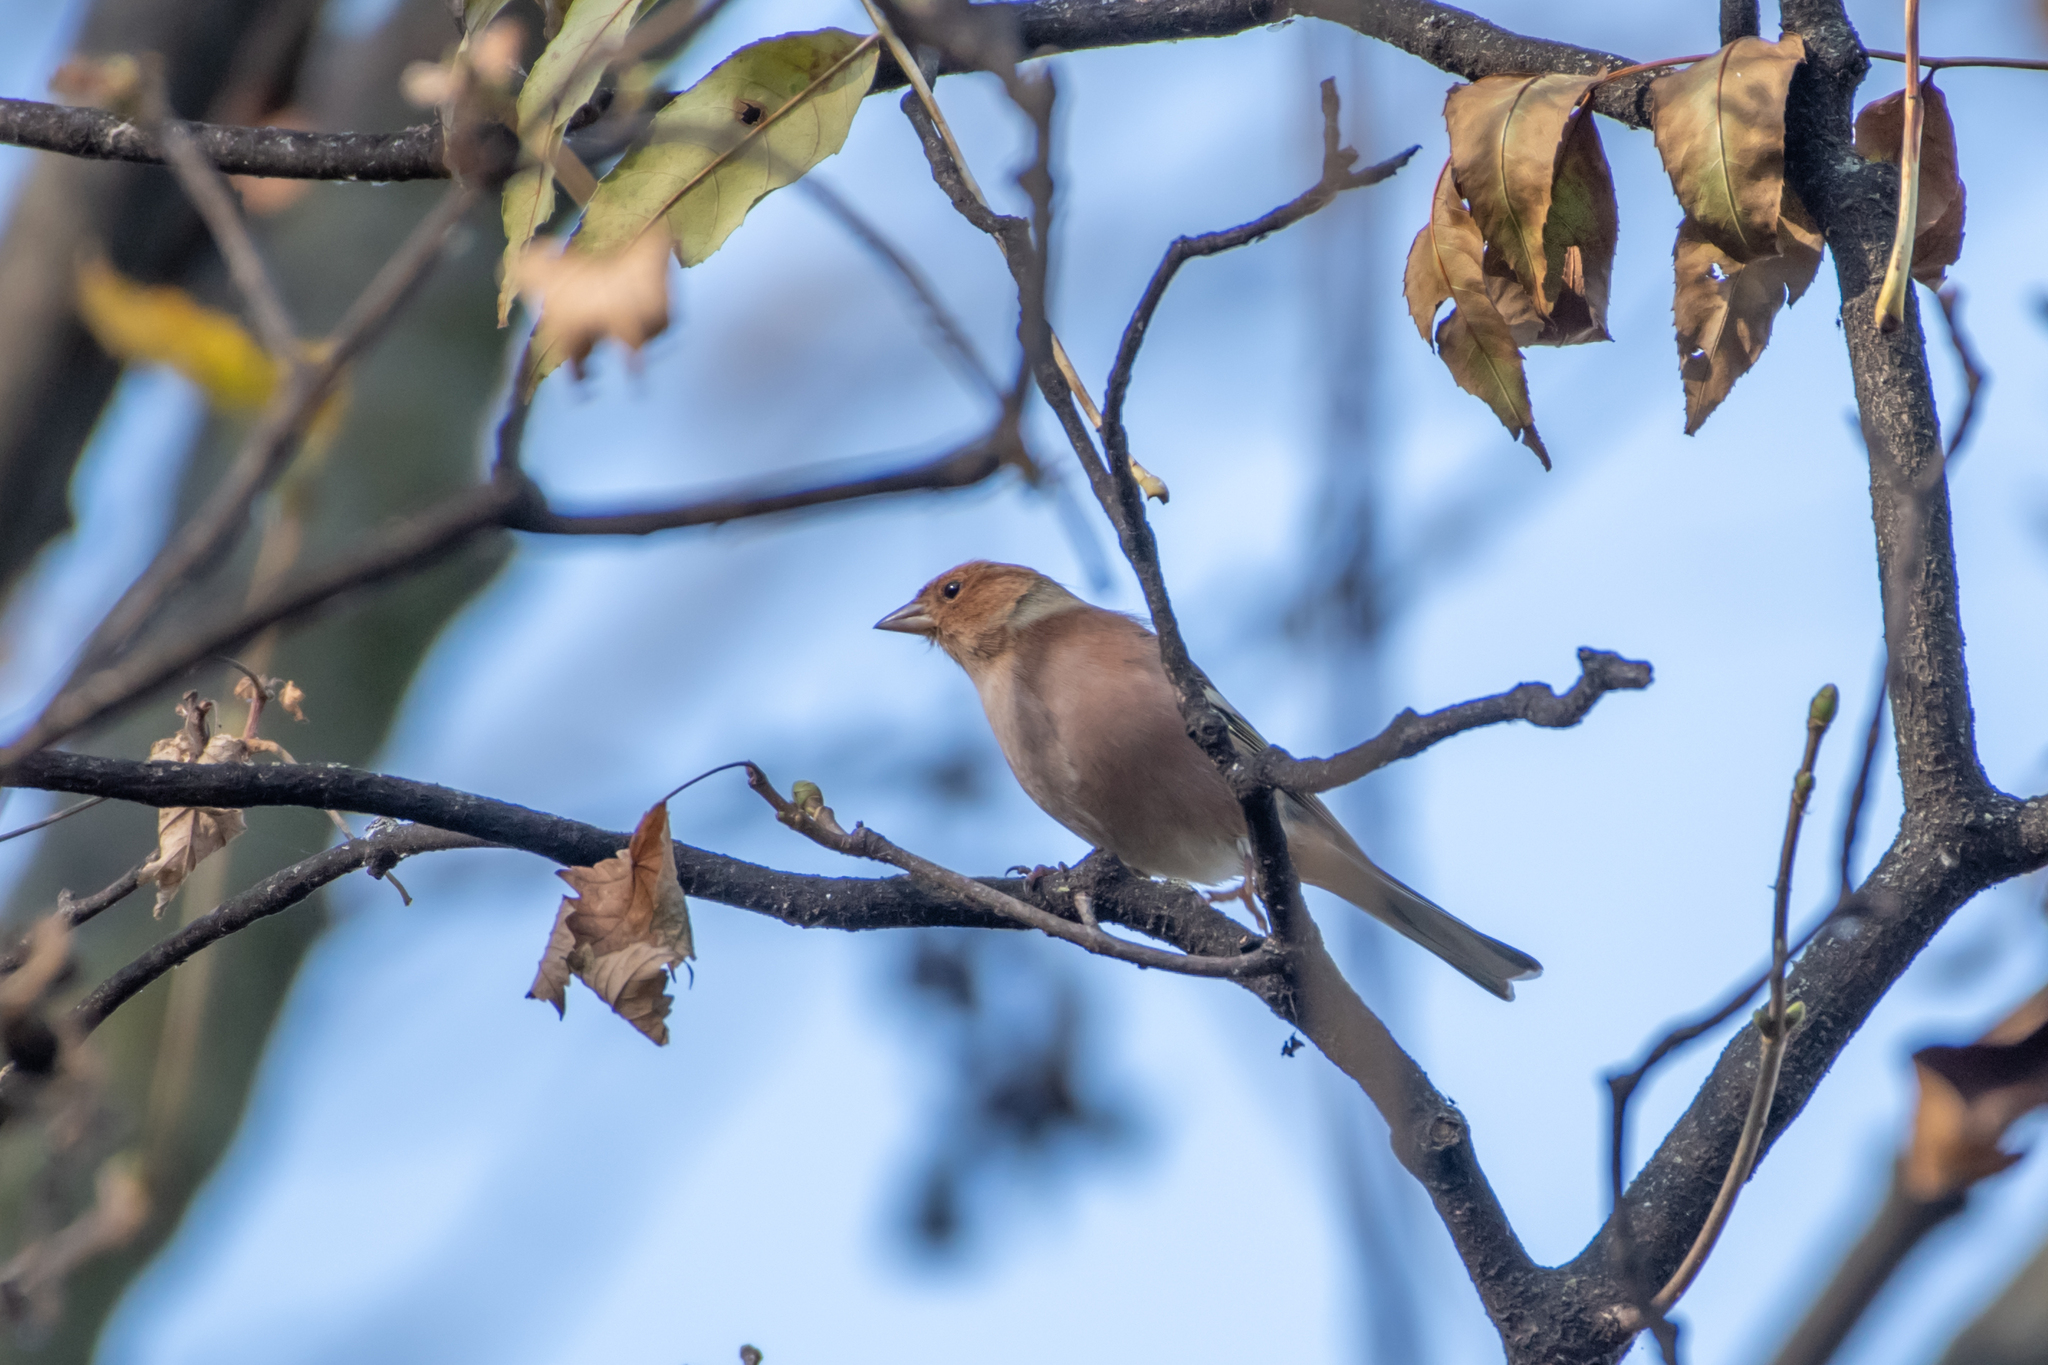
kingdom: Animalia
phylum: Chordata
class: Aves
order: Passeriformes
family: Fringillidae
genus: Fringilla
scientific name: Fringilla coelebs
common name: Common chaffinch
